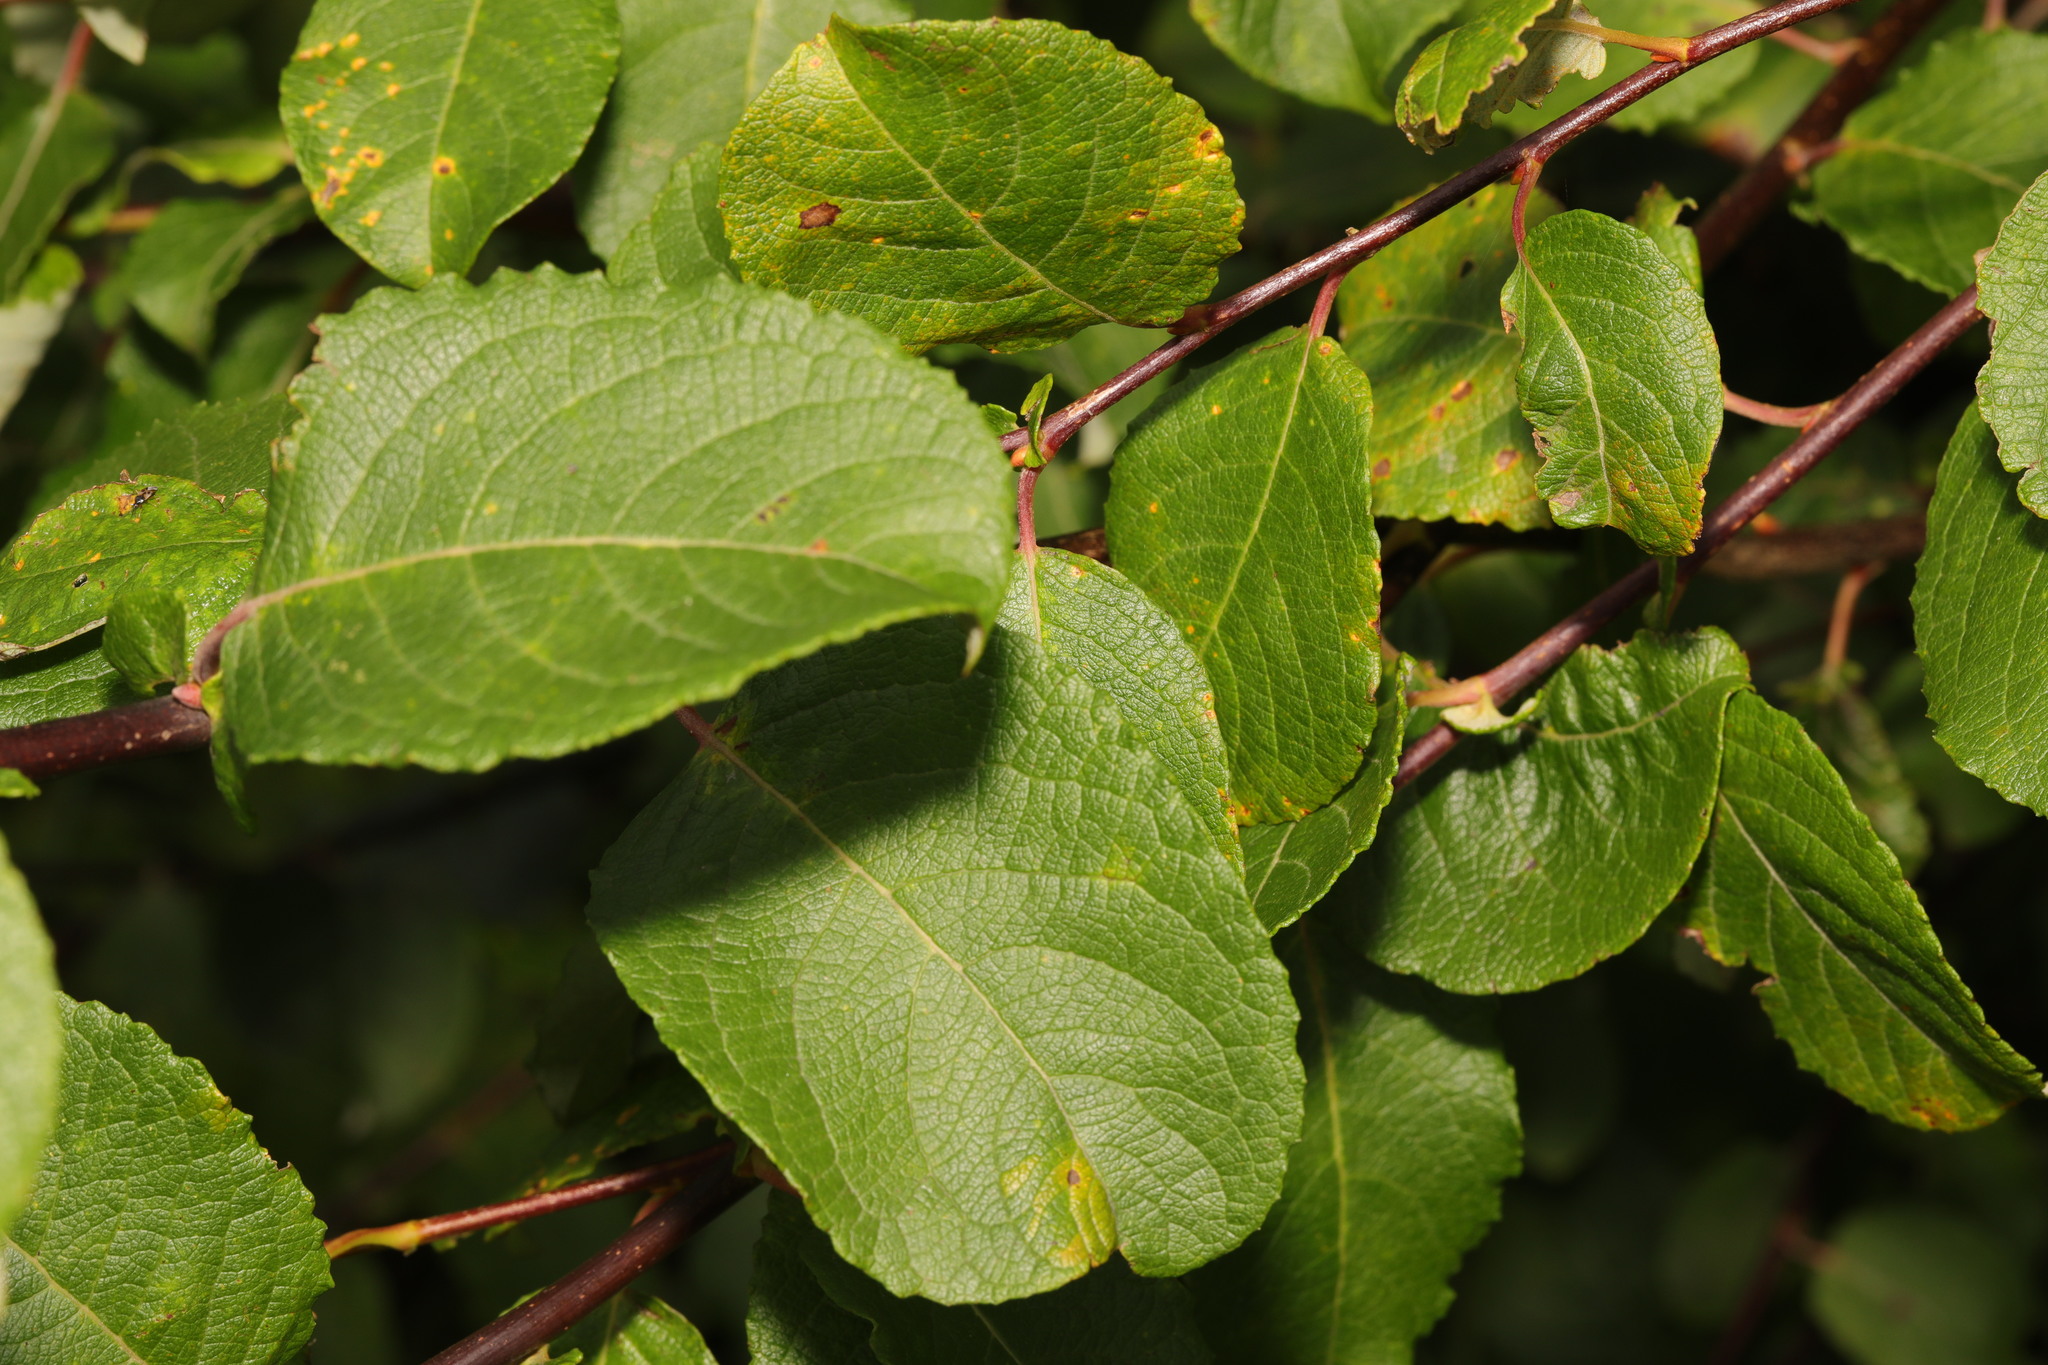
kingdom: Plantae
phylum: Tracheophyta
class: Magnoliopsida
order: Malpighiales
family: Salicaceae
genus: Salix
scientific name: Salix caprea
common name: Goat willow
